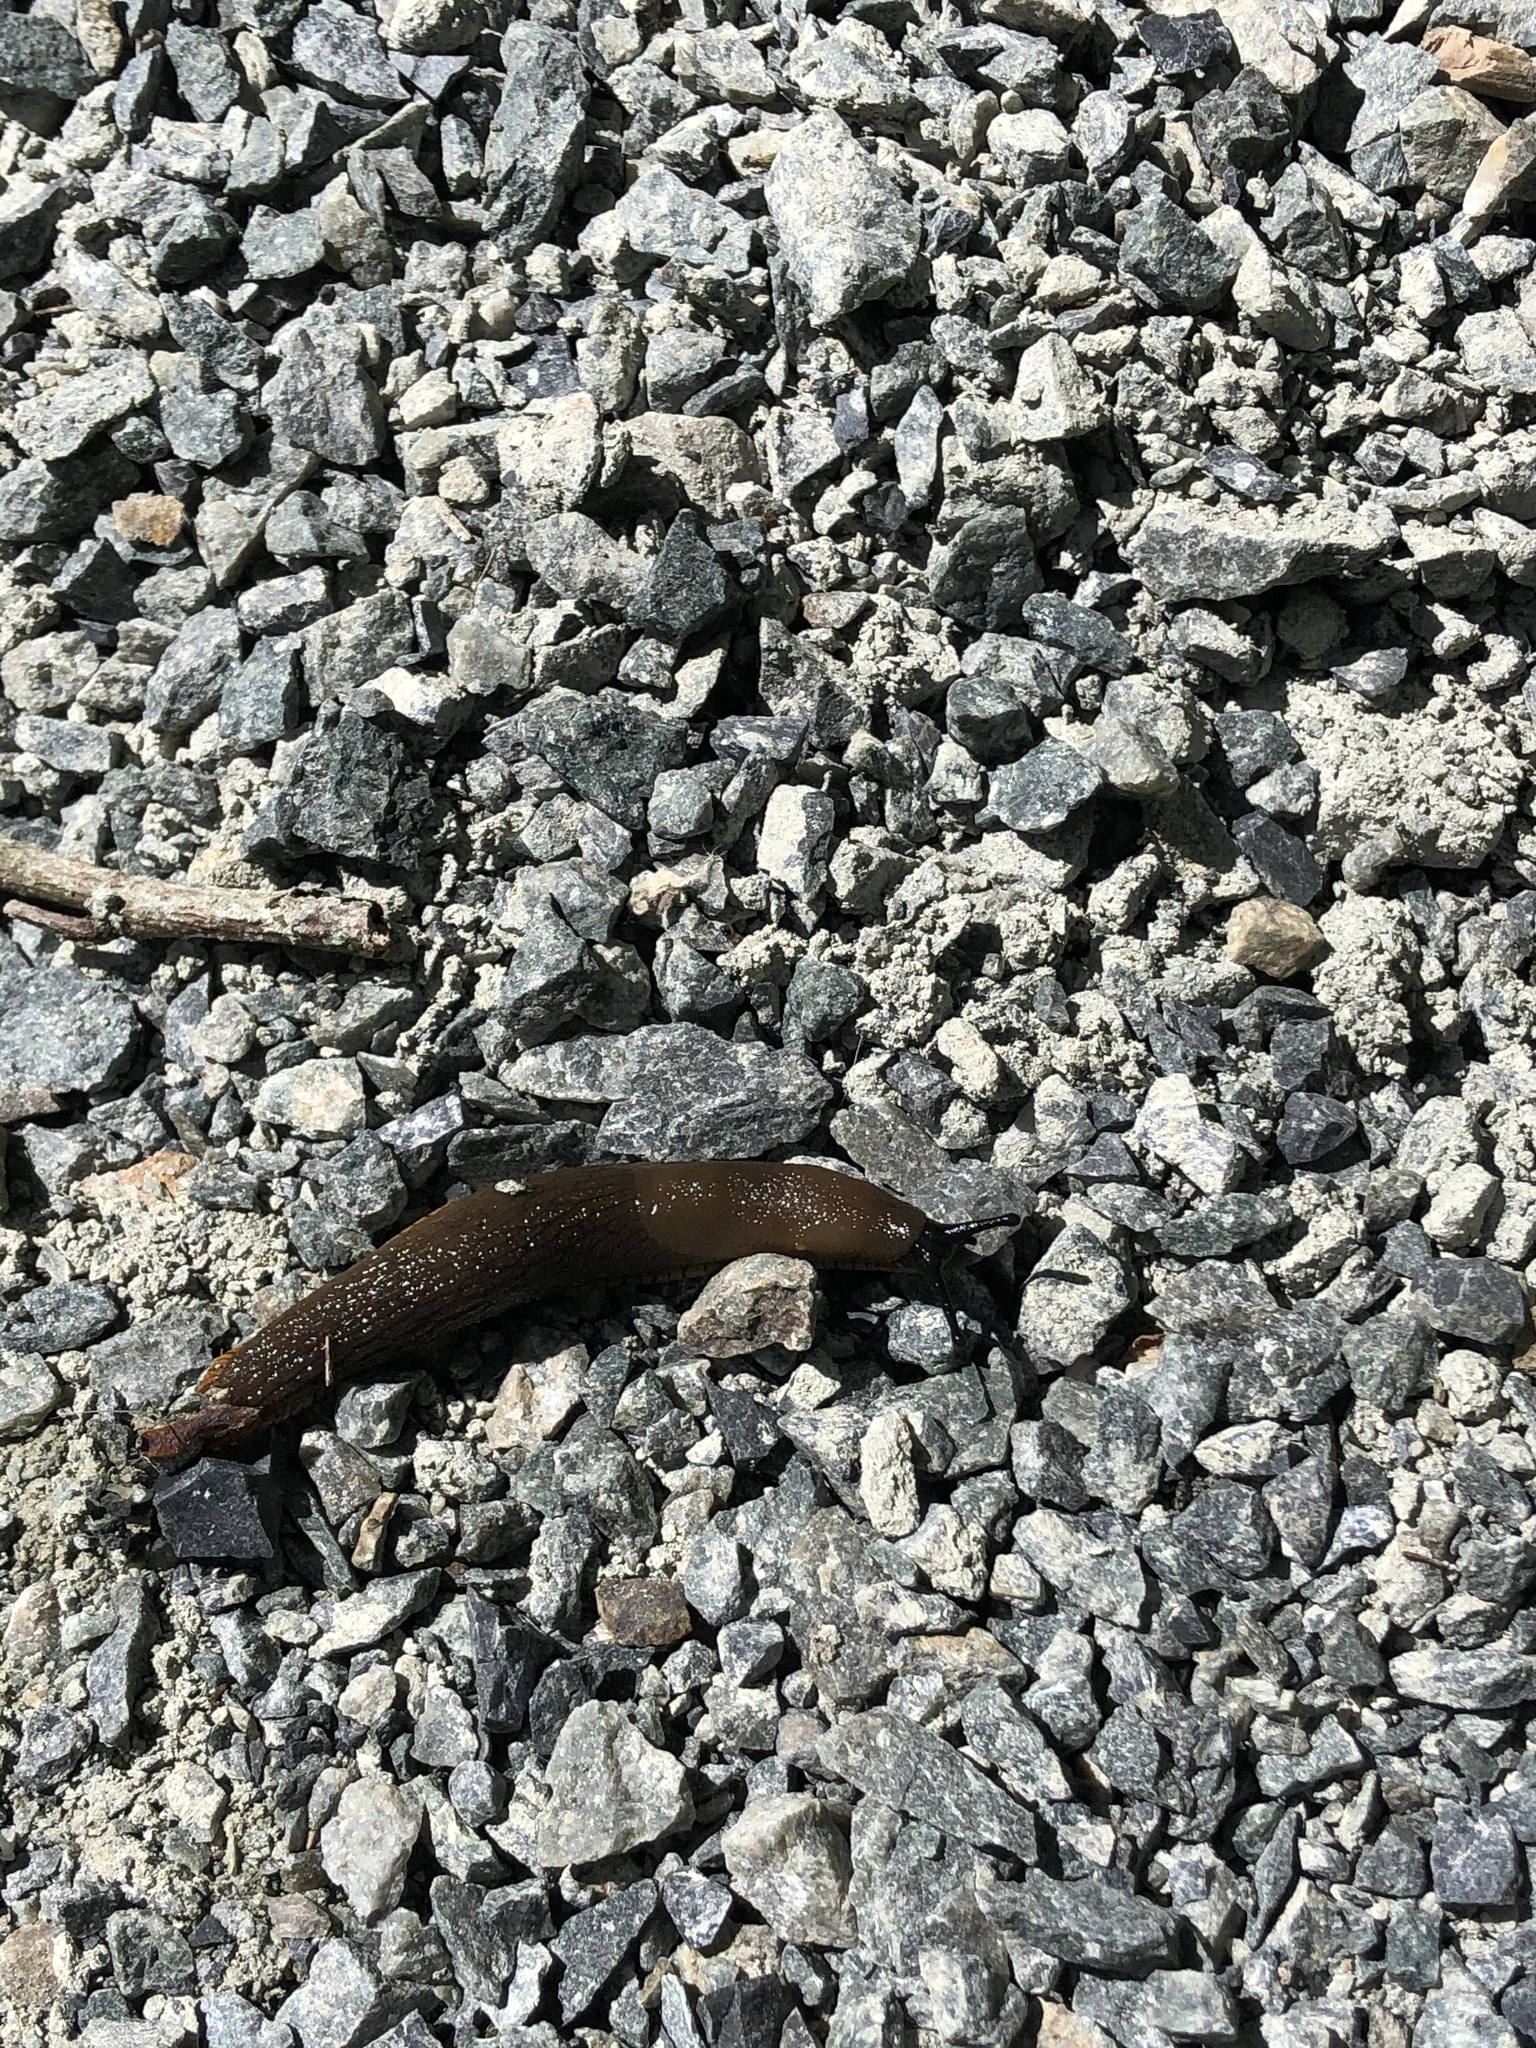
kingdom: Animalia
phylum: Mollusca
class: Gastropoda
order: Stylommatophora
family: Arionidae
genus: Arion
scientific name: Arion rufus
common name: Chocolate arion
